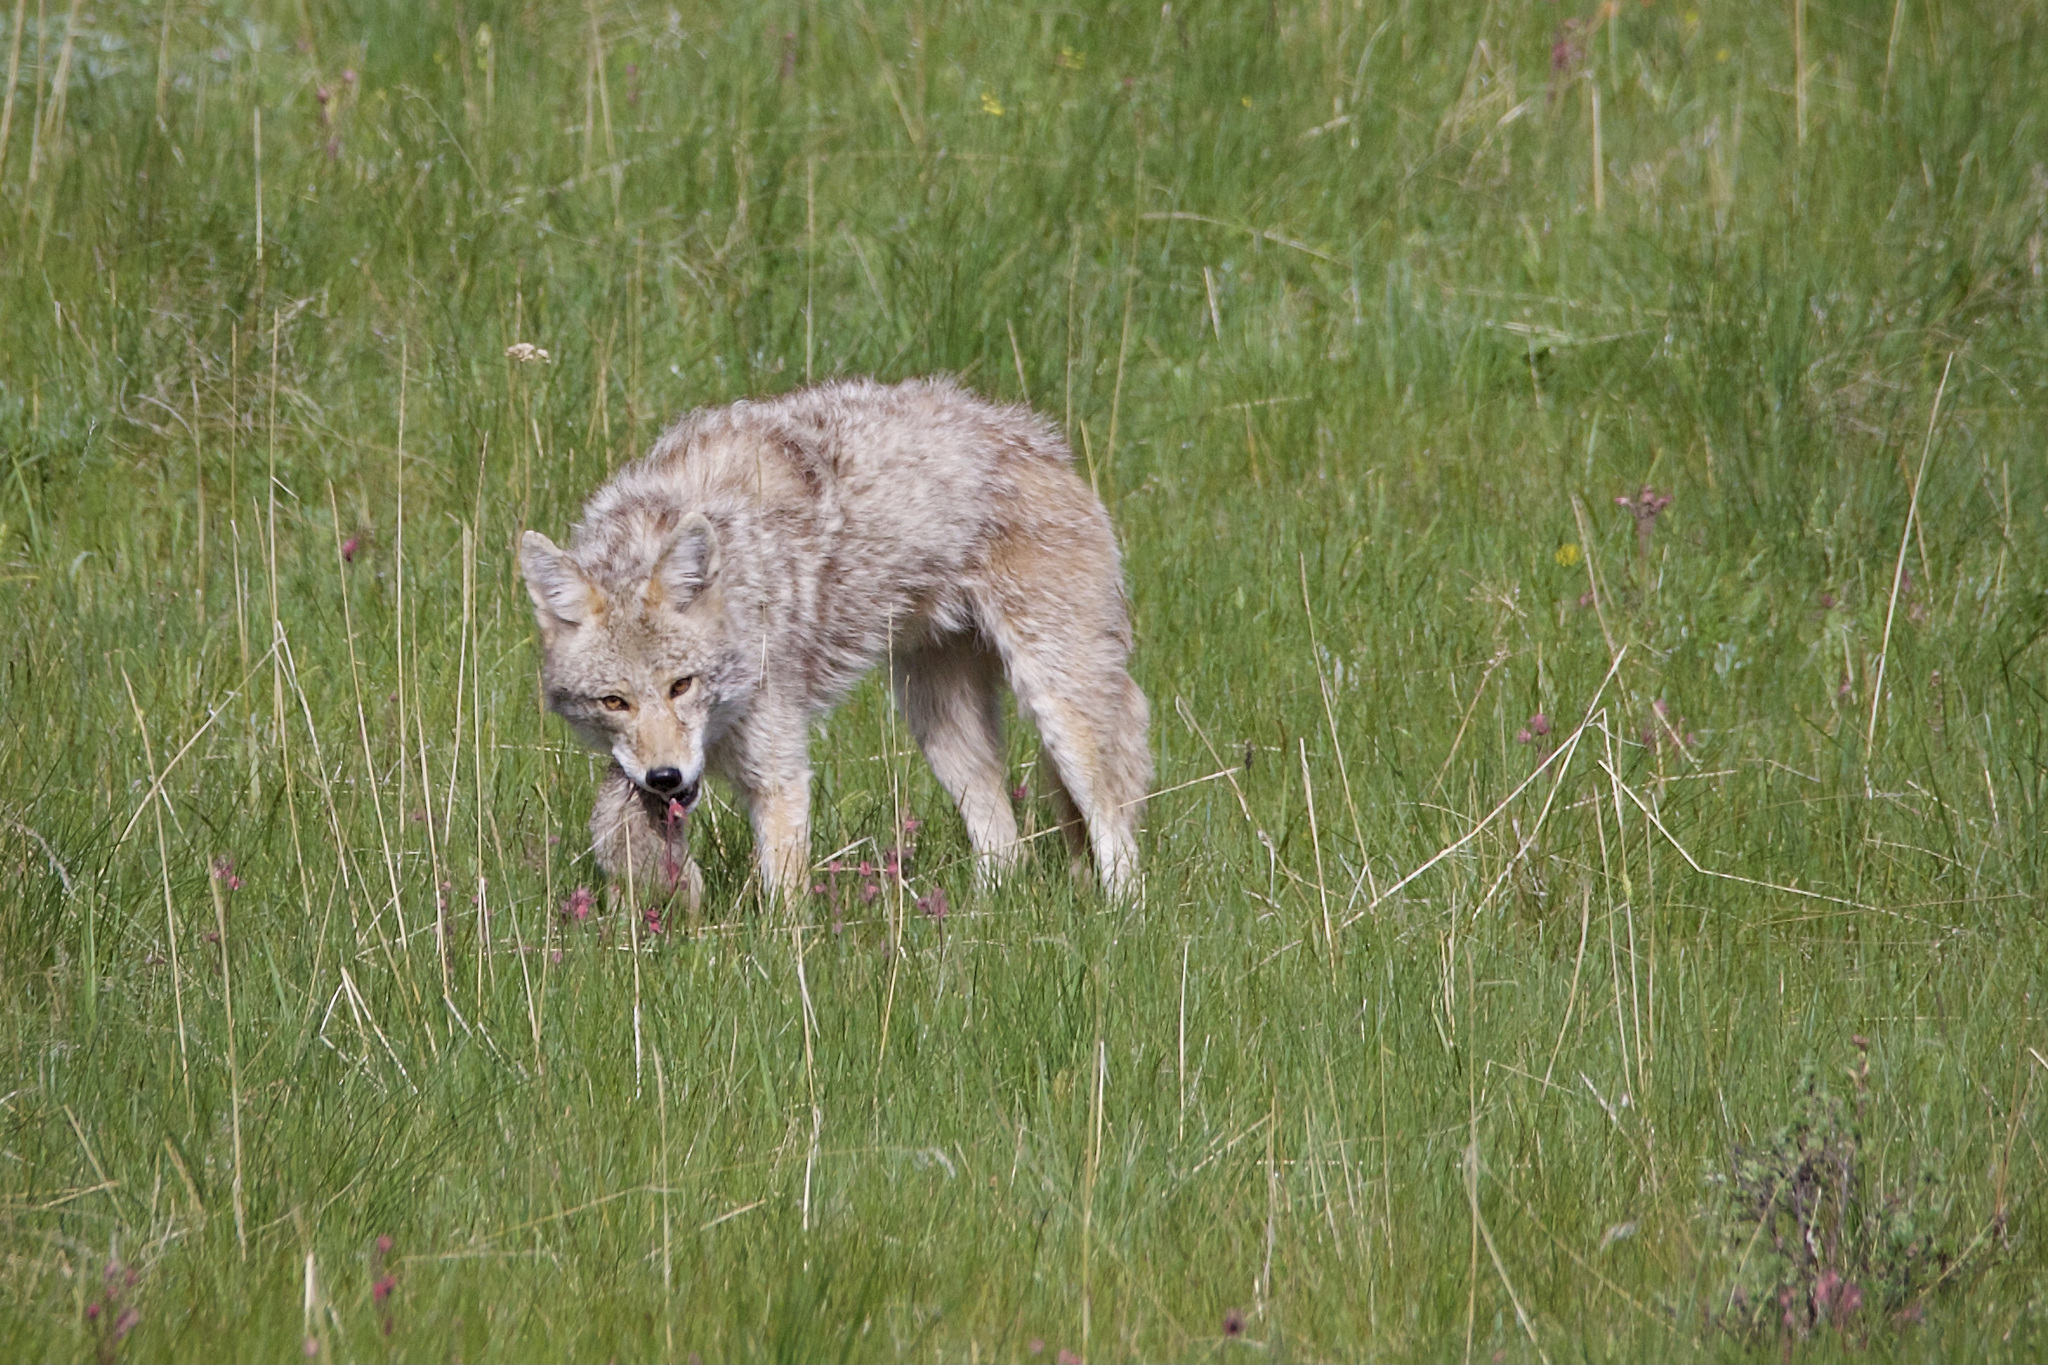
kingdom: Animalia
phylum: Chordata
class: Mammalia
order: Carnivora
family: Canidae
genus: Canis
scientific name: Canis latrans
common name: Coyote
